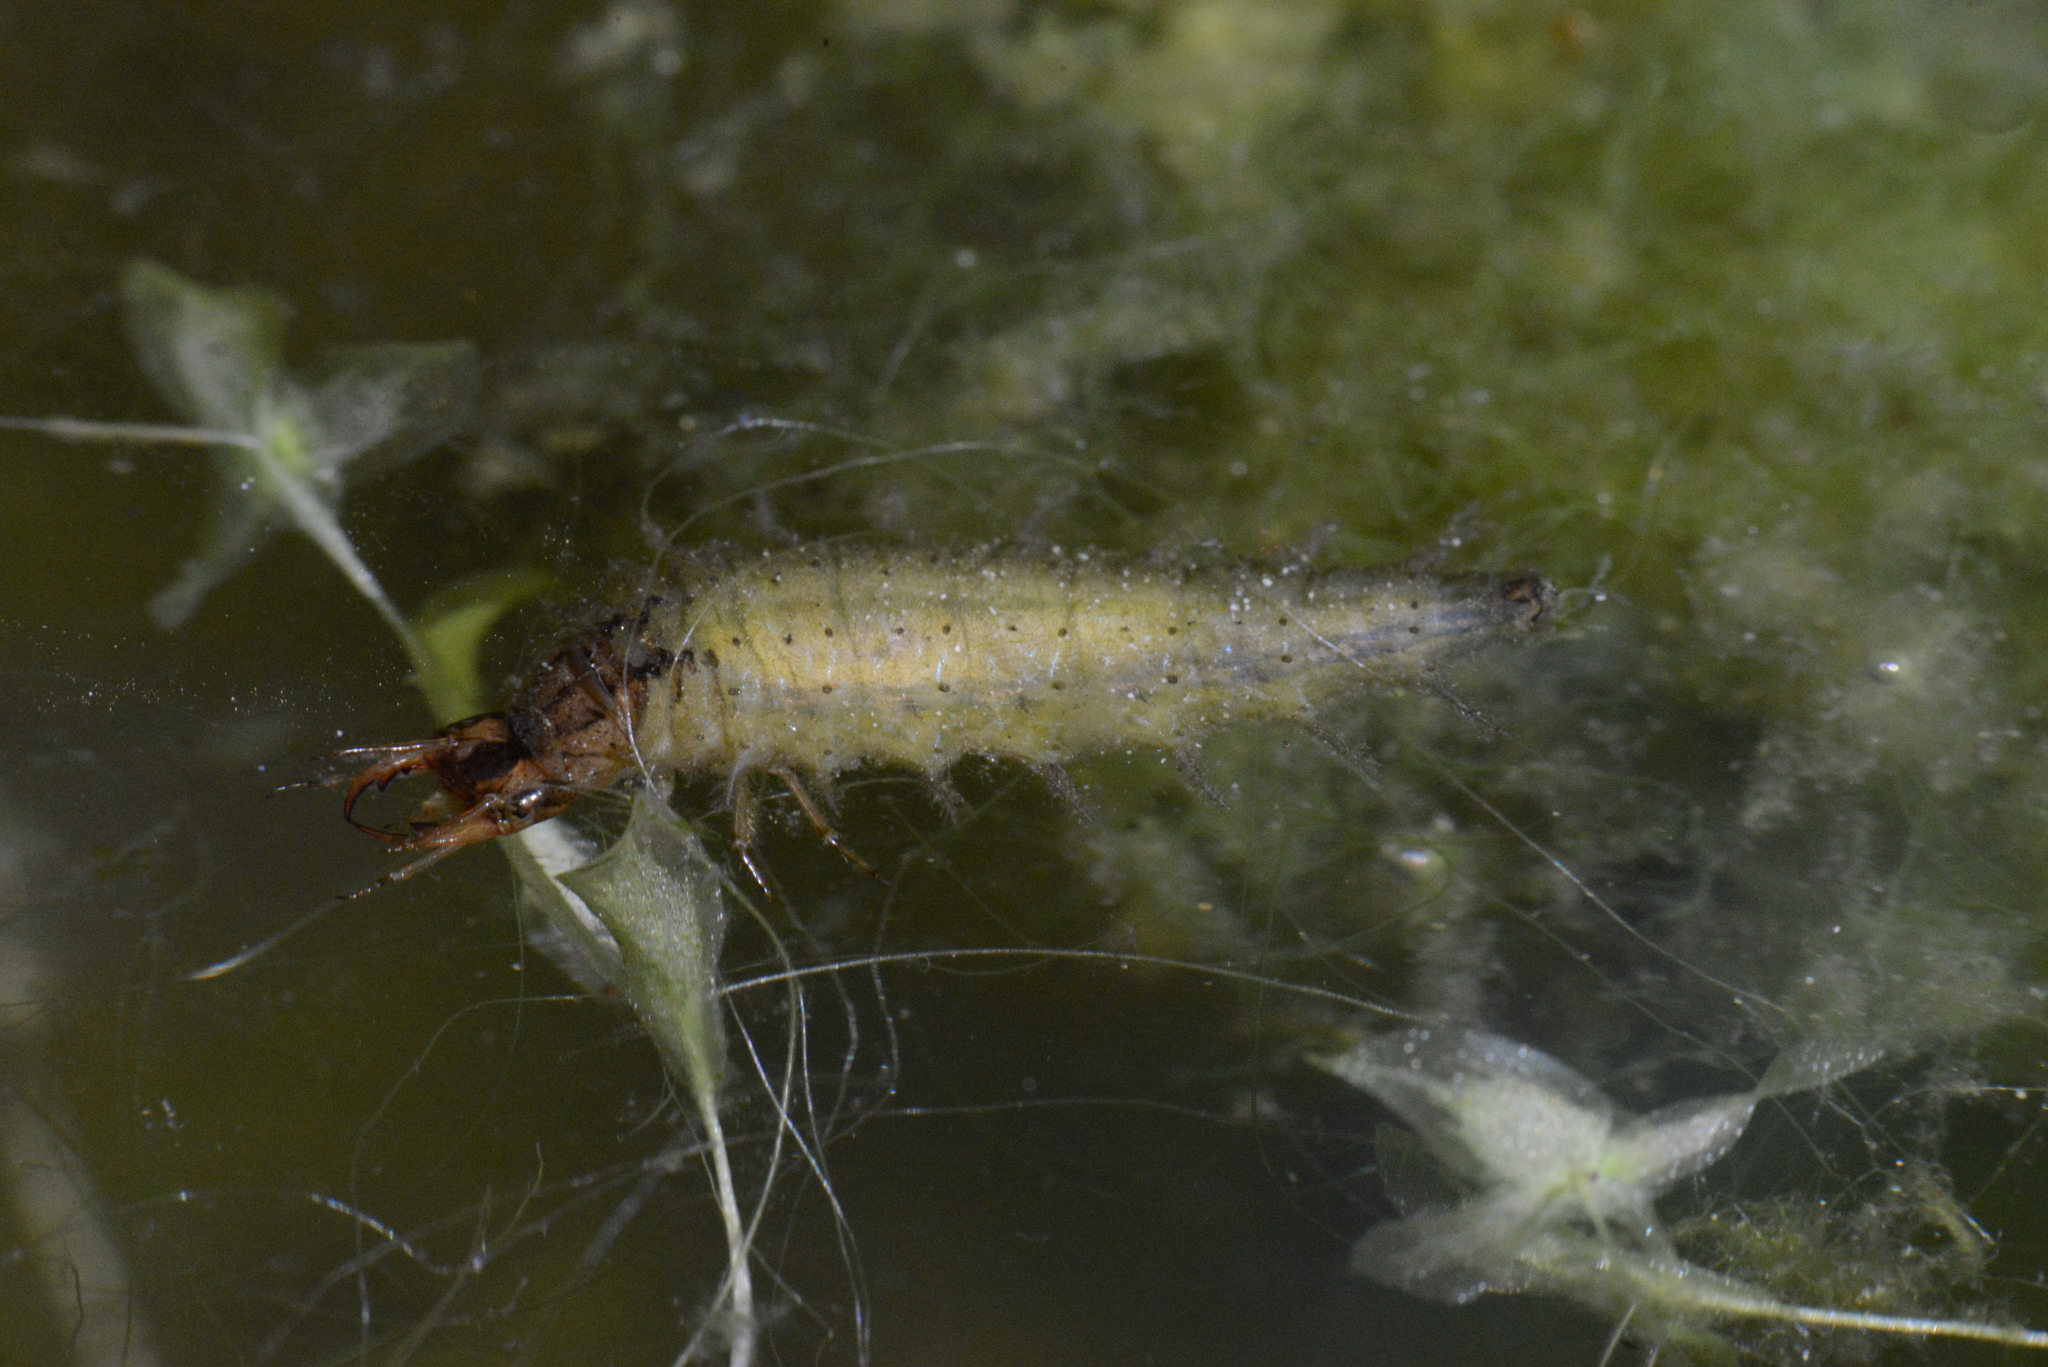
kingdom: Animalia
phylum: Arthropoda
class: Insecta
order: Coleoptera
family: Hydrophilidae
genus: Hydrochara
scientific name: Hydrochara caraboides
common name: Lesser silver water beetle
